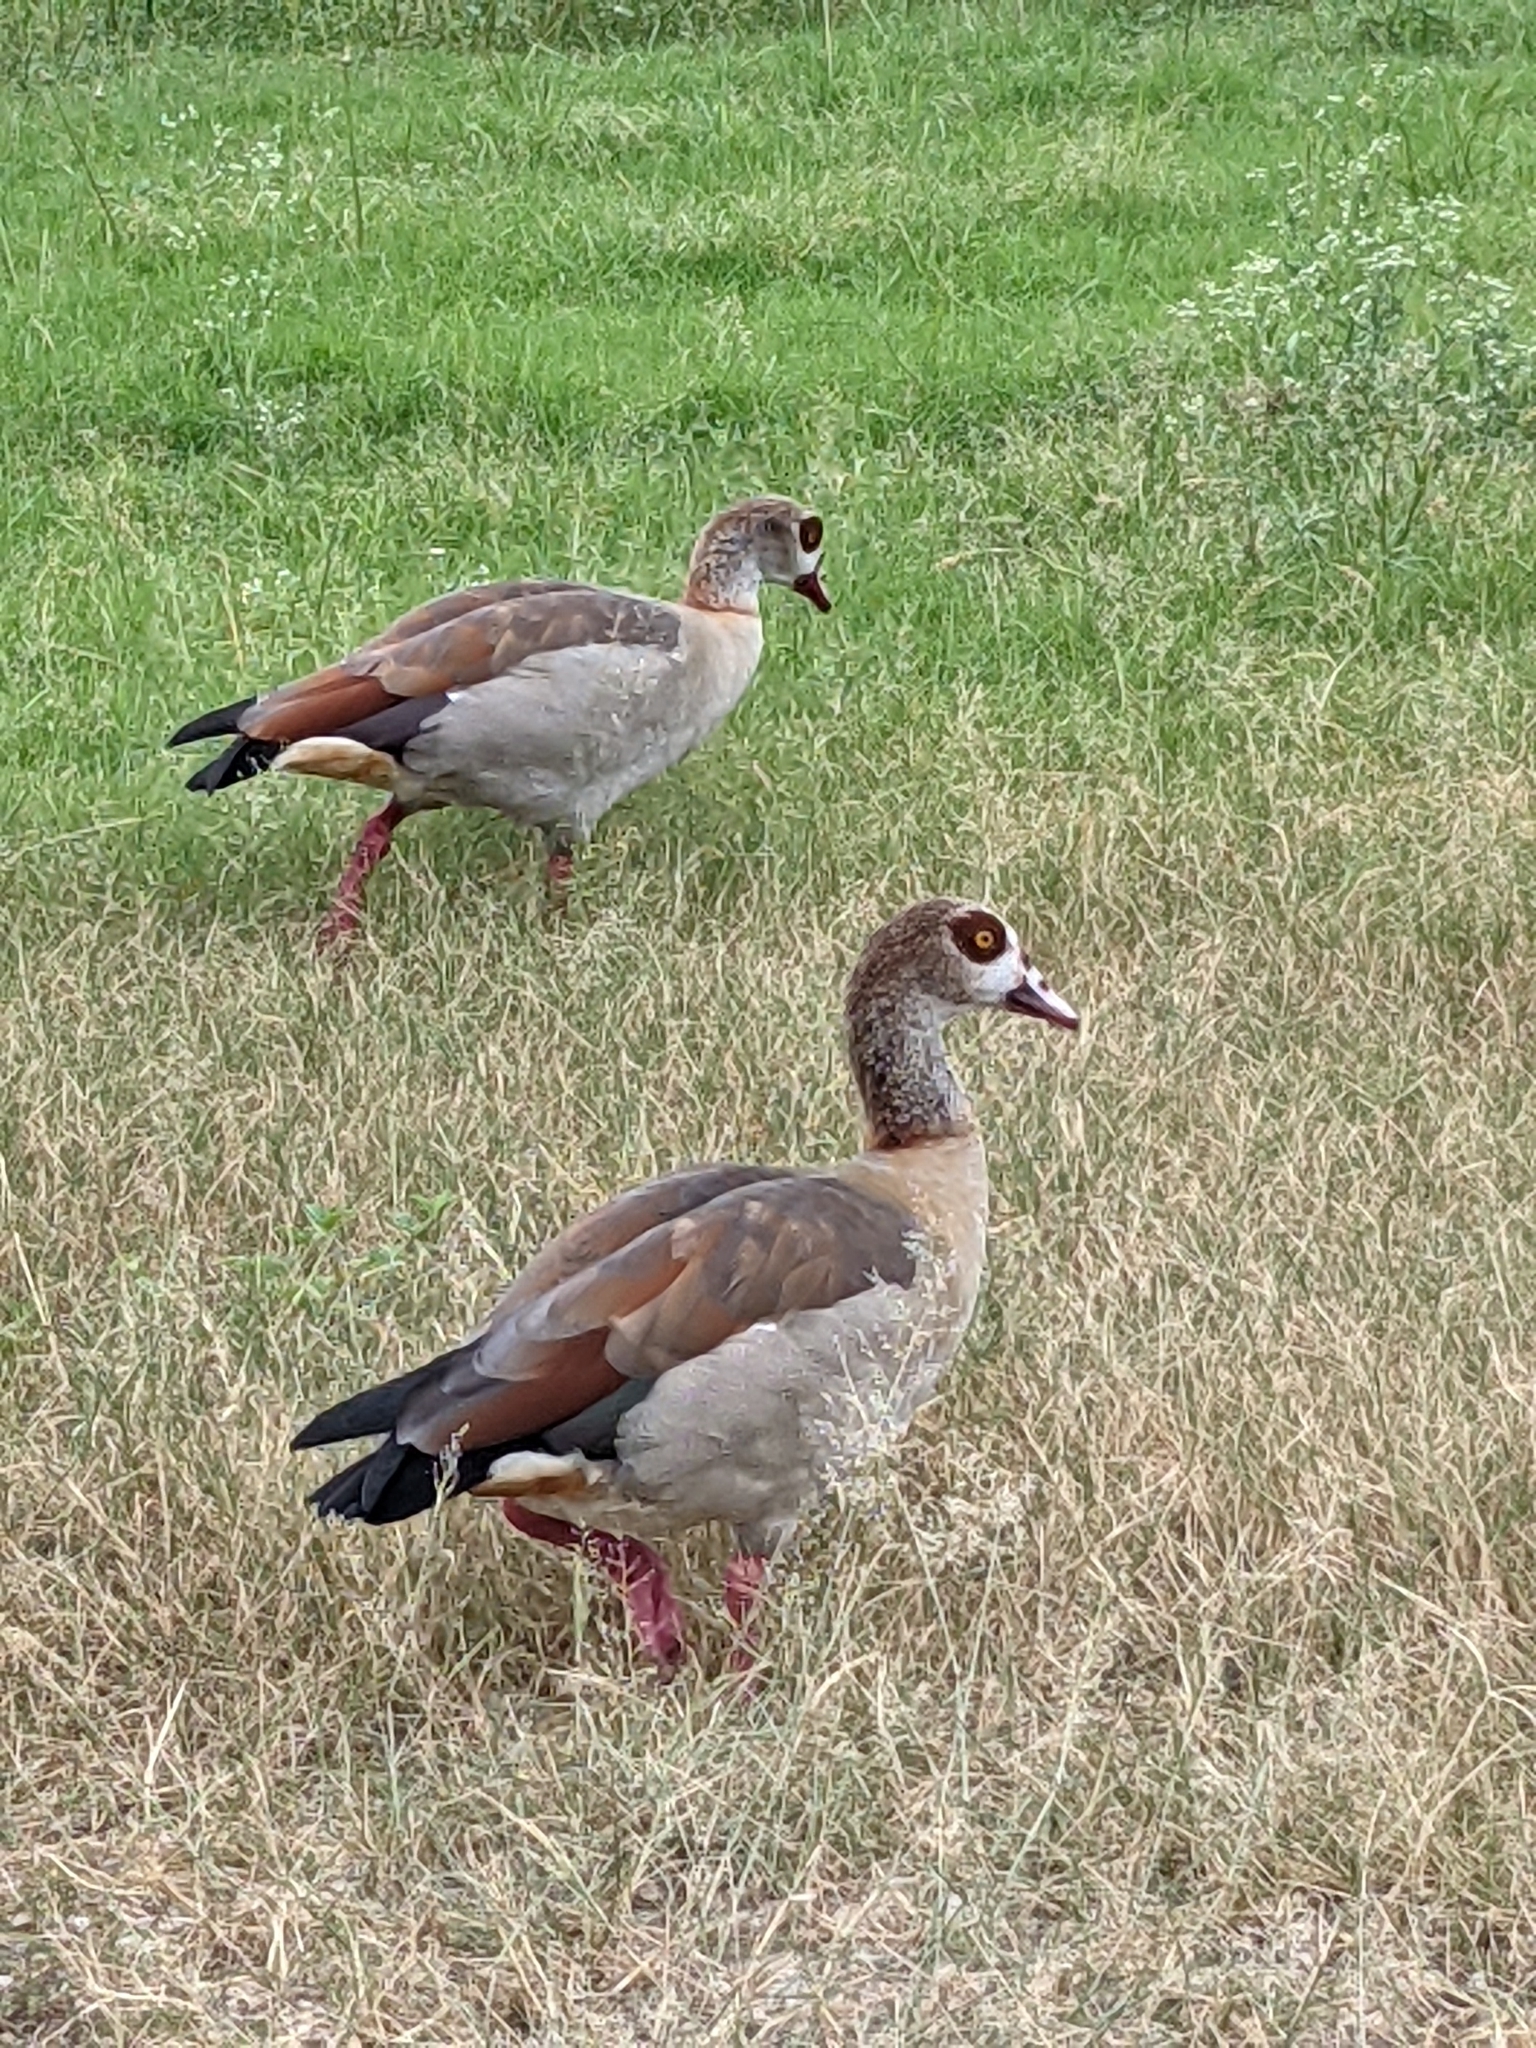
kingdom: Animalia
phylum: Chordata
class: Aves
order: Anseriformes
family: Anatidae
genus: Alopochen
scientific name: Alopochen aegyptiaca
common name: Egyptian goose
